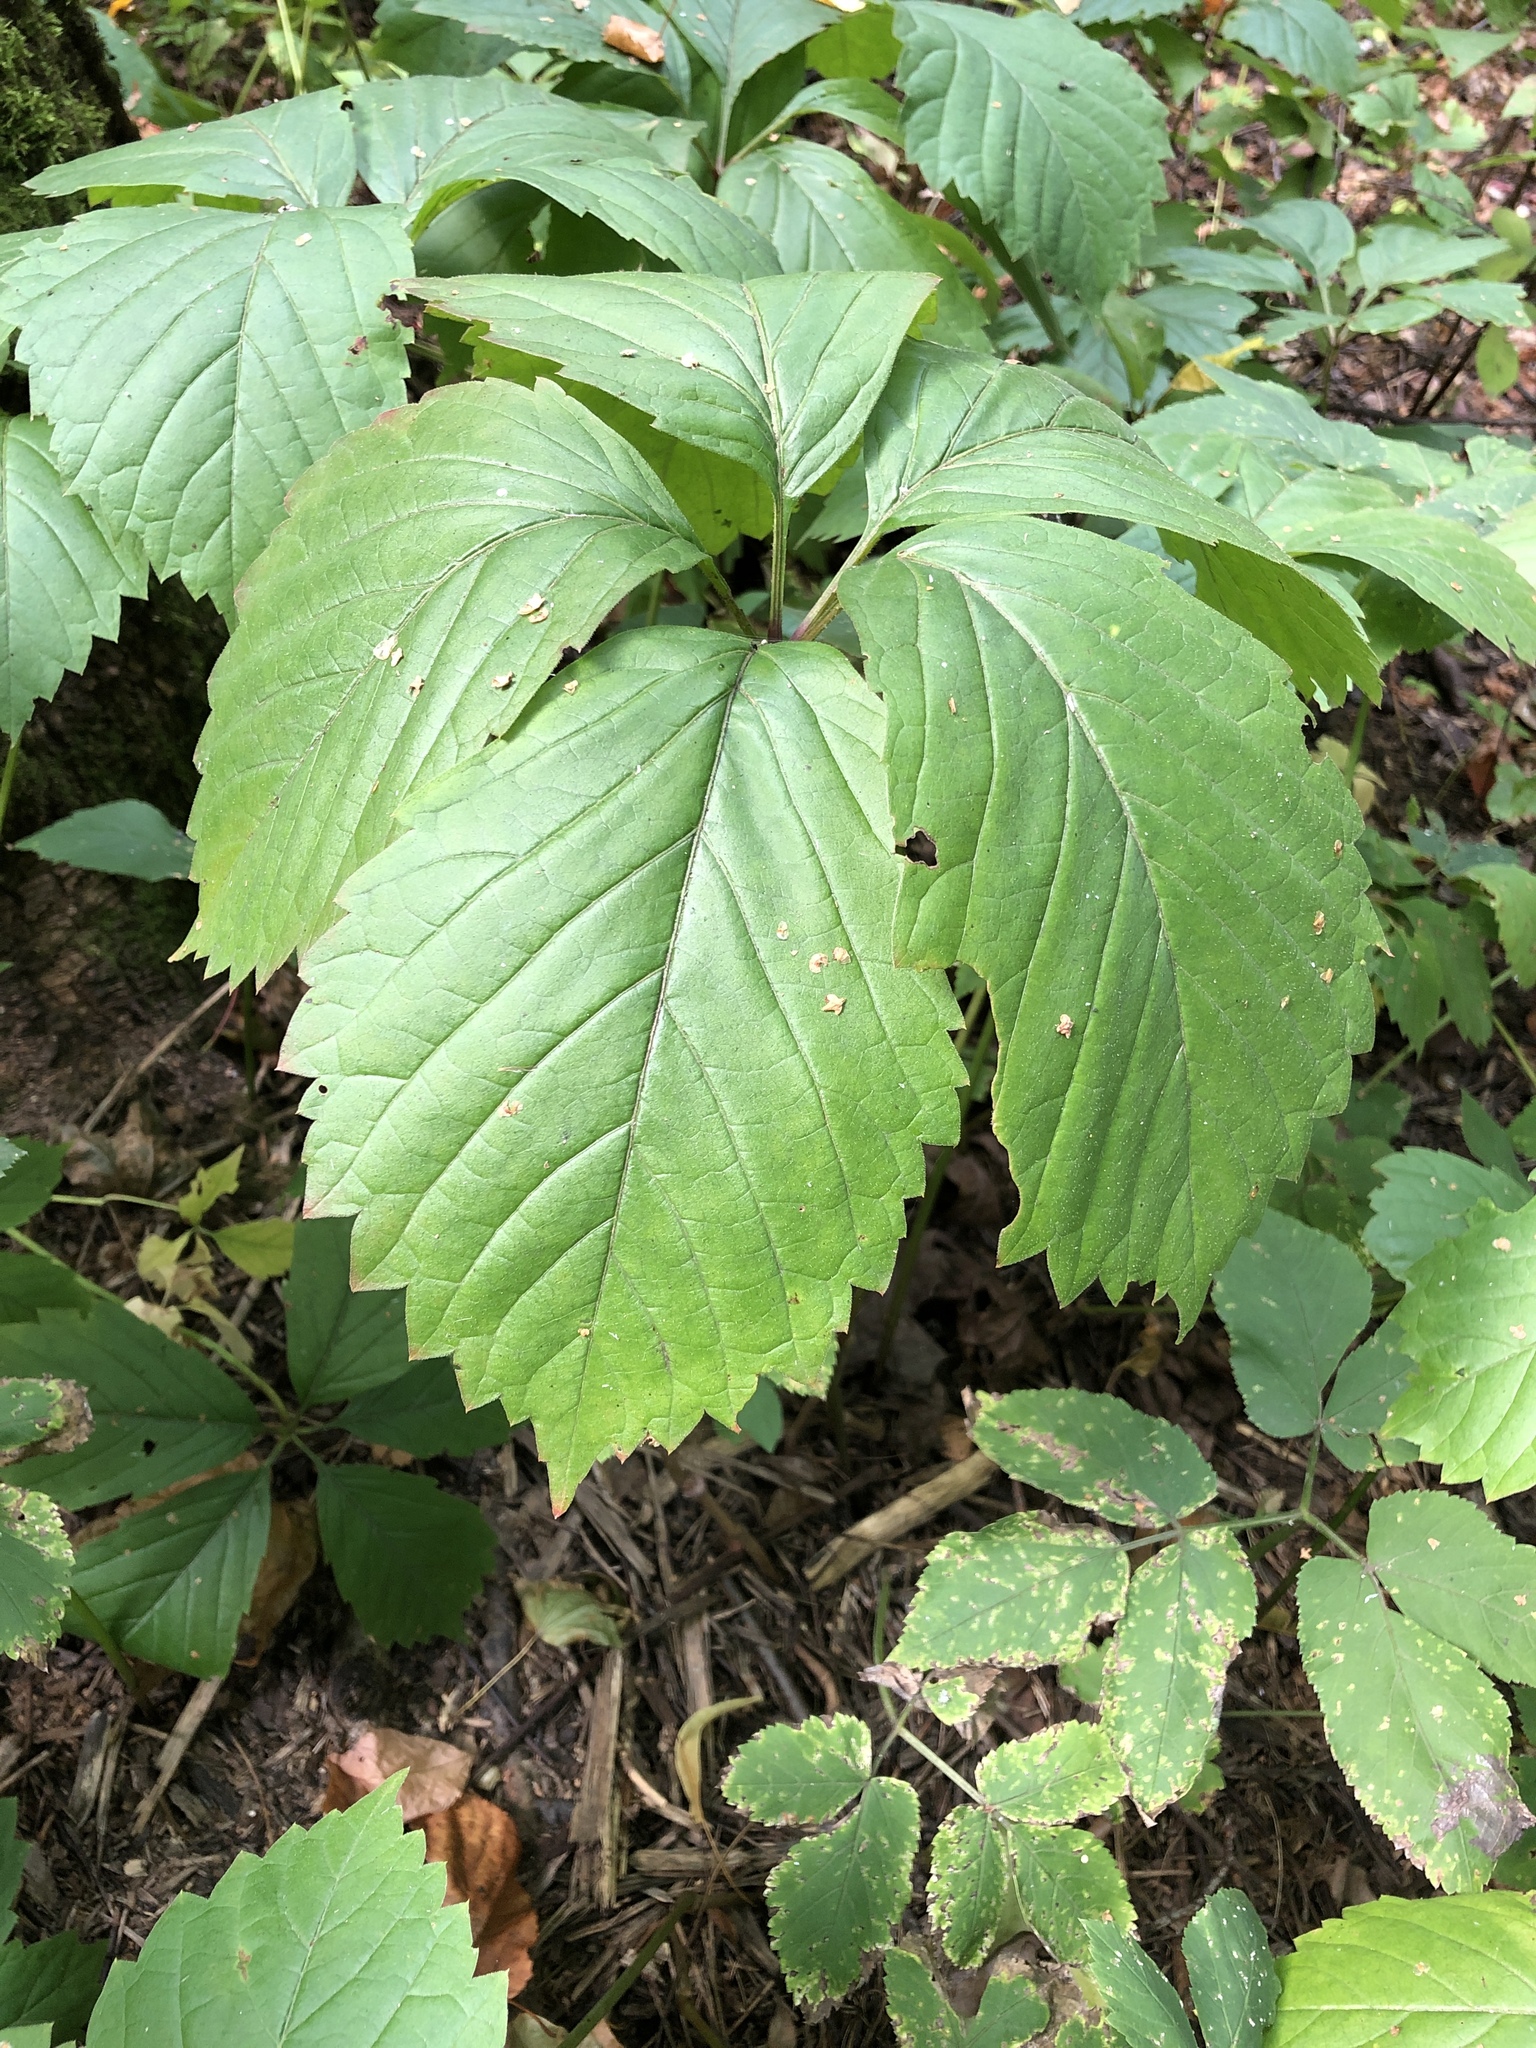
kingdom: Plantae
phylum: Tracheophyta
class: Magnoliopsida
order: Vitales
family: Vitaceae
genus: Parthenocissus
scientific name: Parthenocissus inserta
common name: False virginia-creeper
